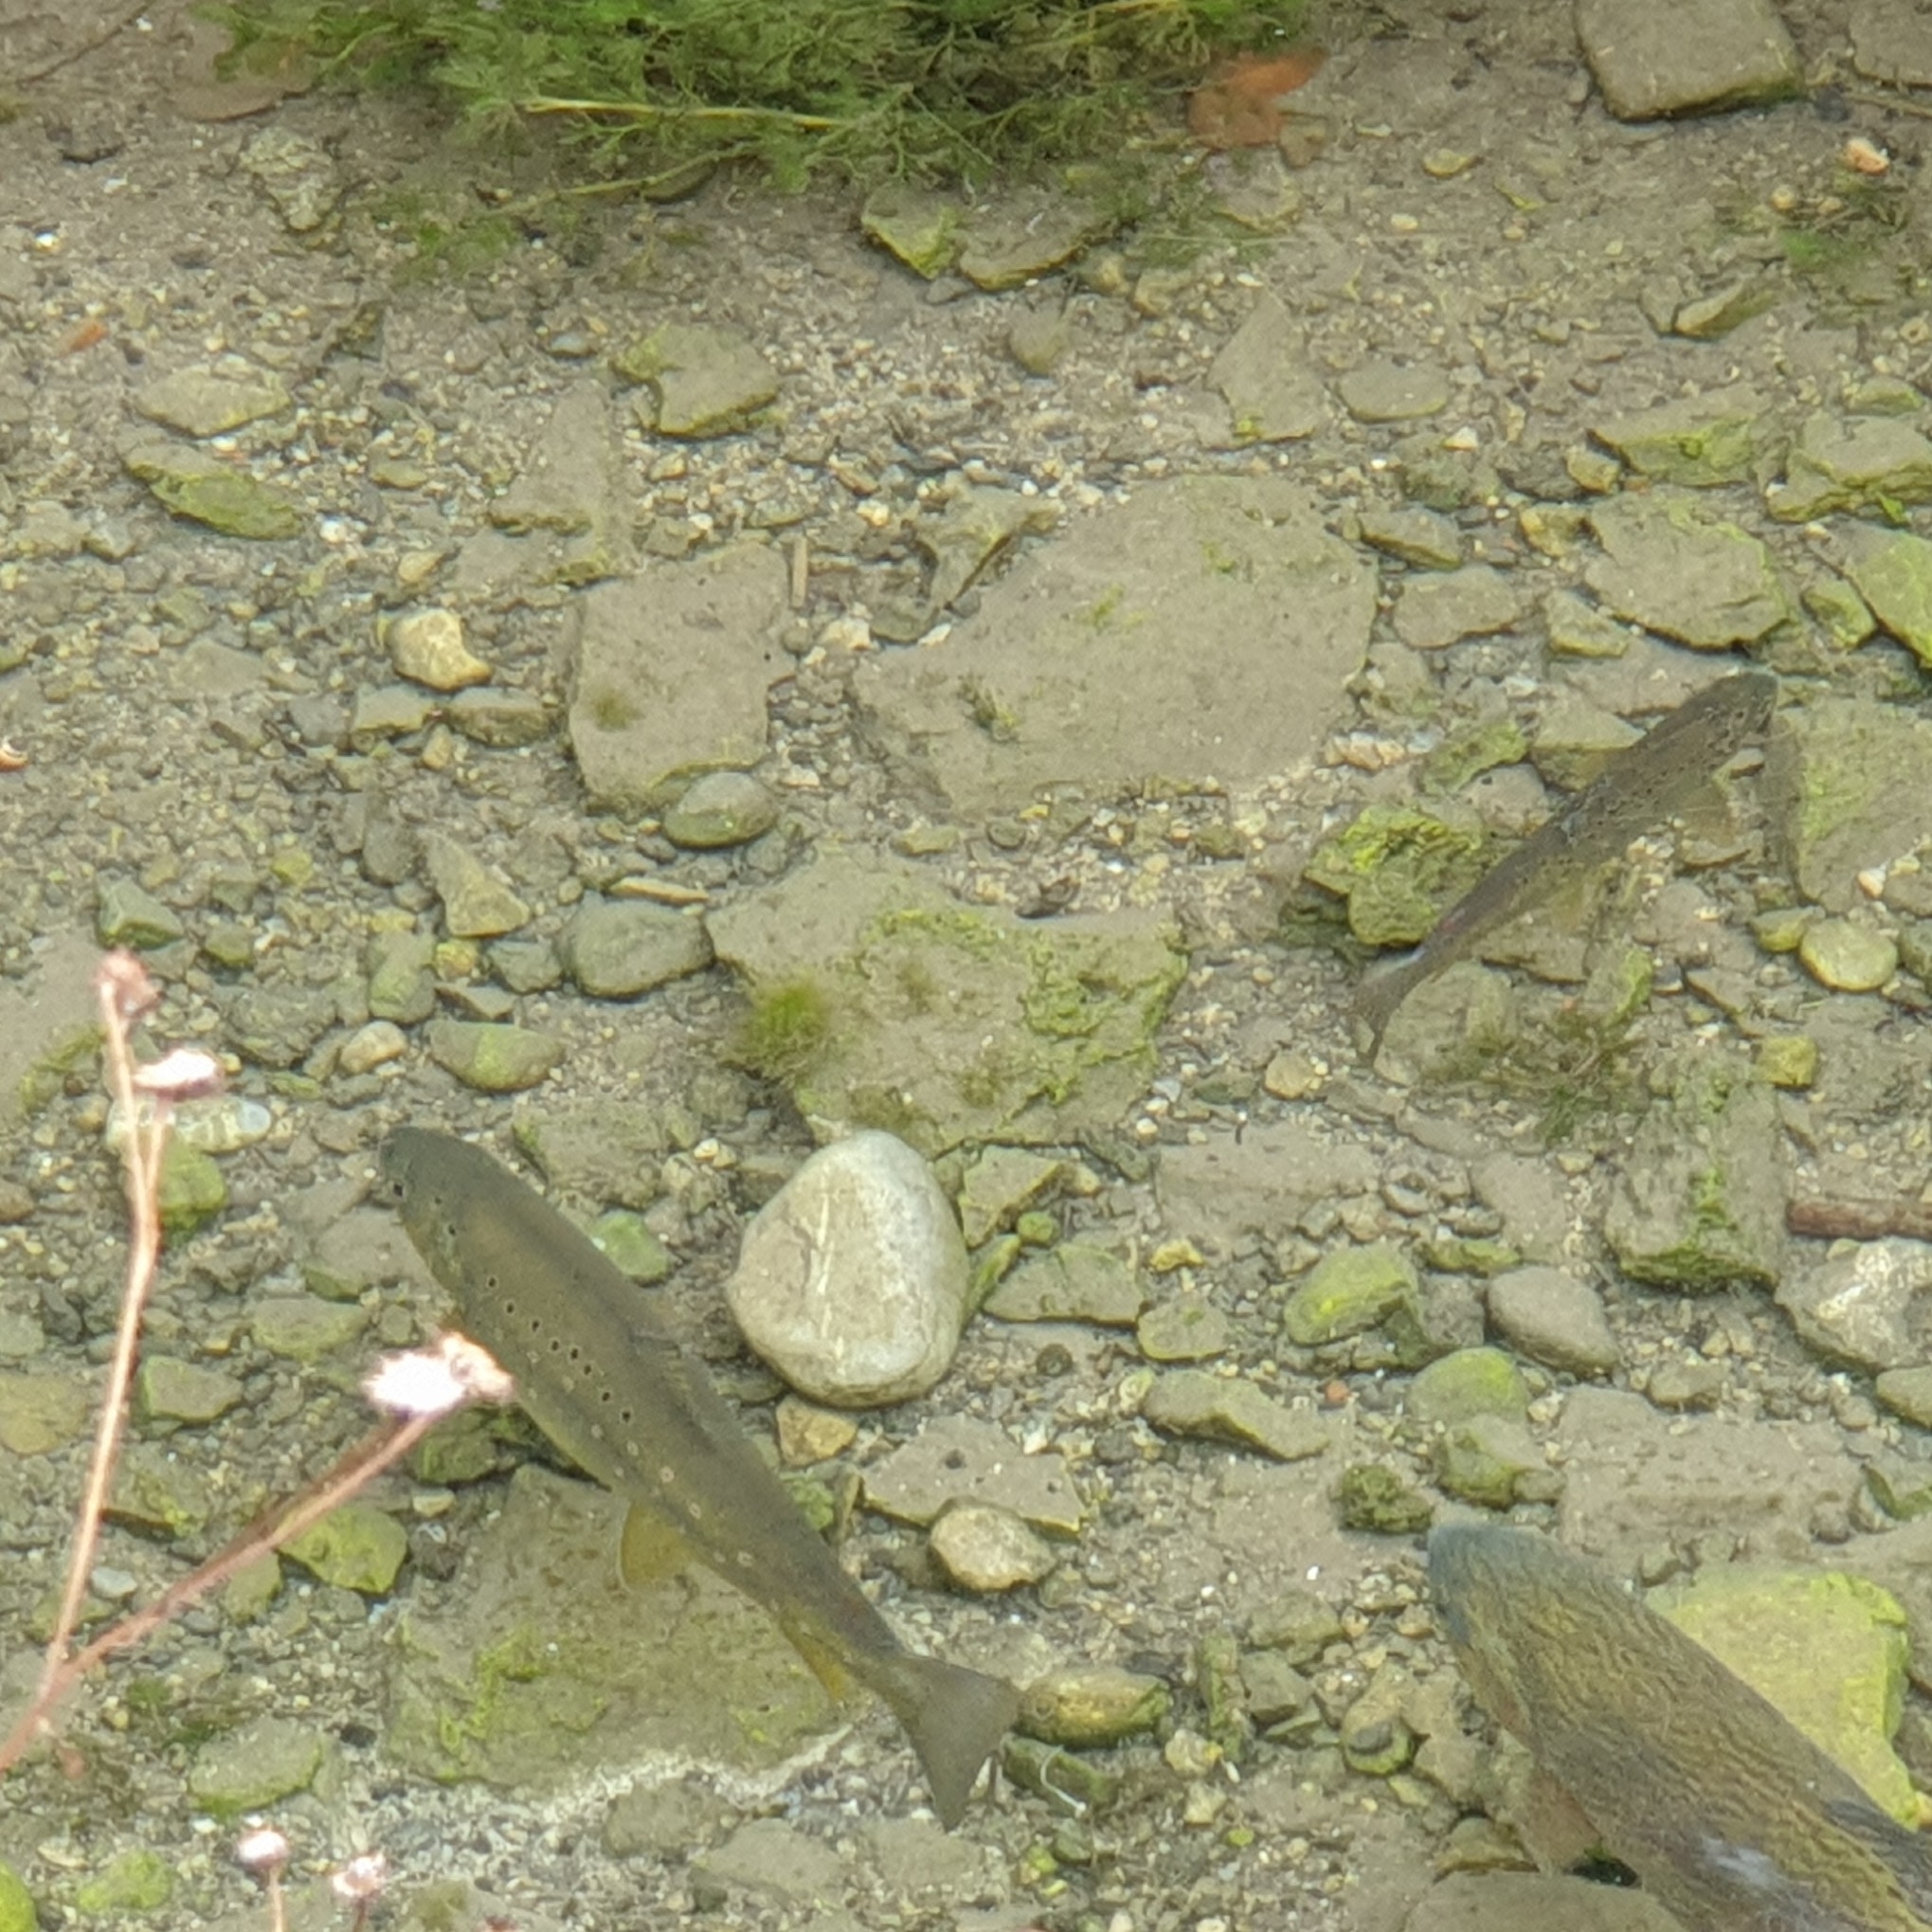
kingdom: Animalia
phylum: Chordata
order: Salmoniformes
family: Salmonidae
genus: Salmo
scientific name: Salmo trutta
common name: Brown trout
